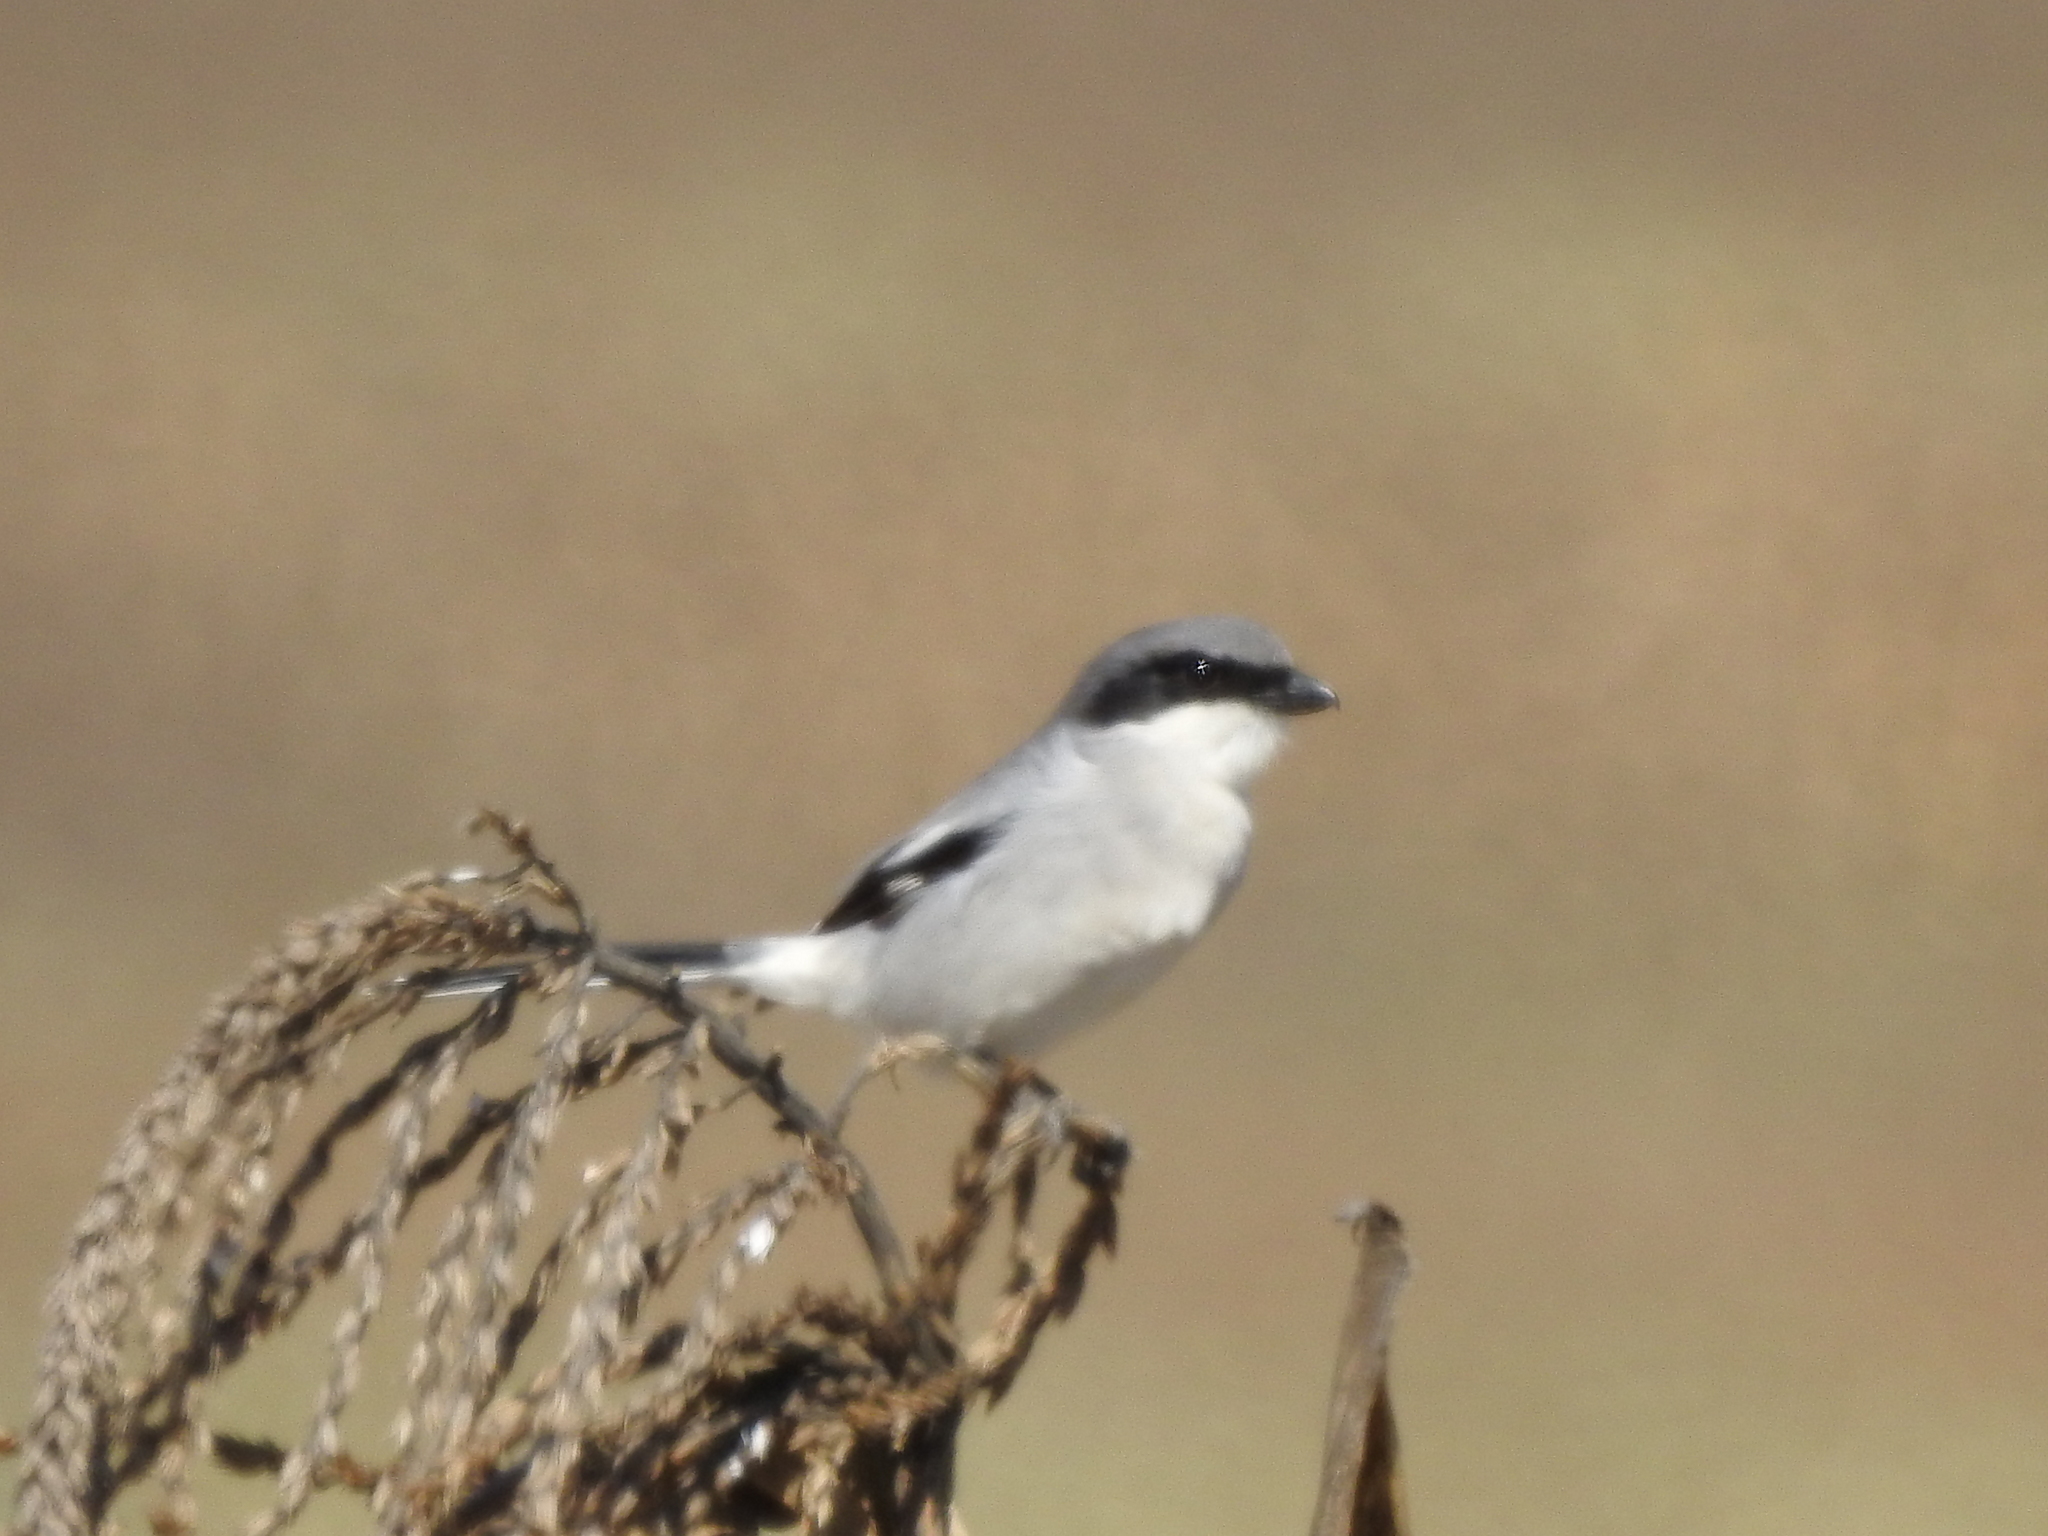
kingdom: Animalia
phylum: Chordata
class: Aves
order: Passeriformes
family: Laniidae
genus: Lanius
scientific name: Lanius ludovicianus
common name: Loggerhead shrike
